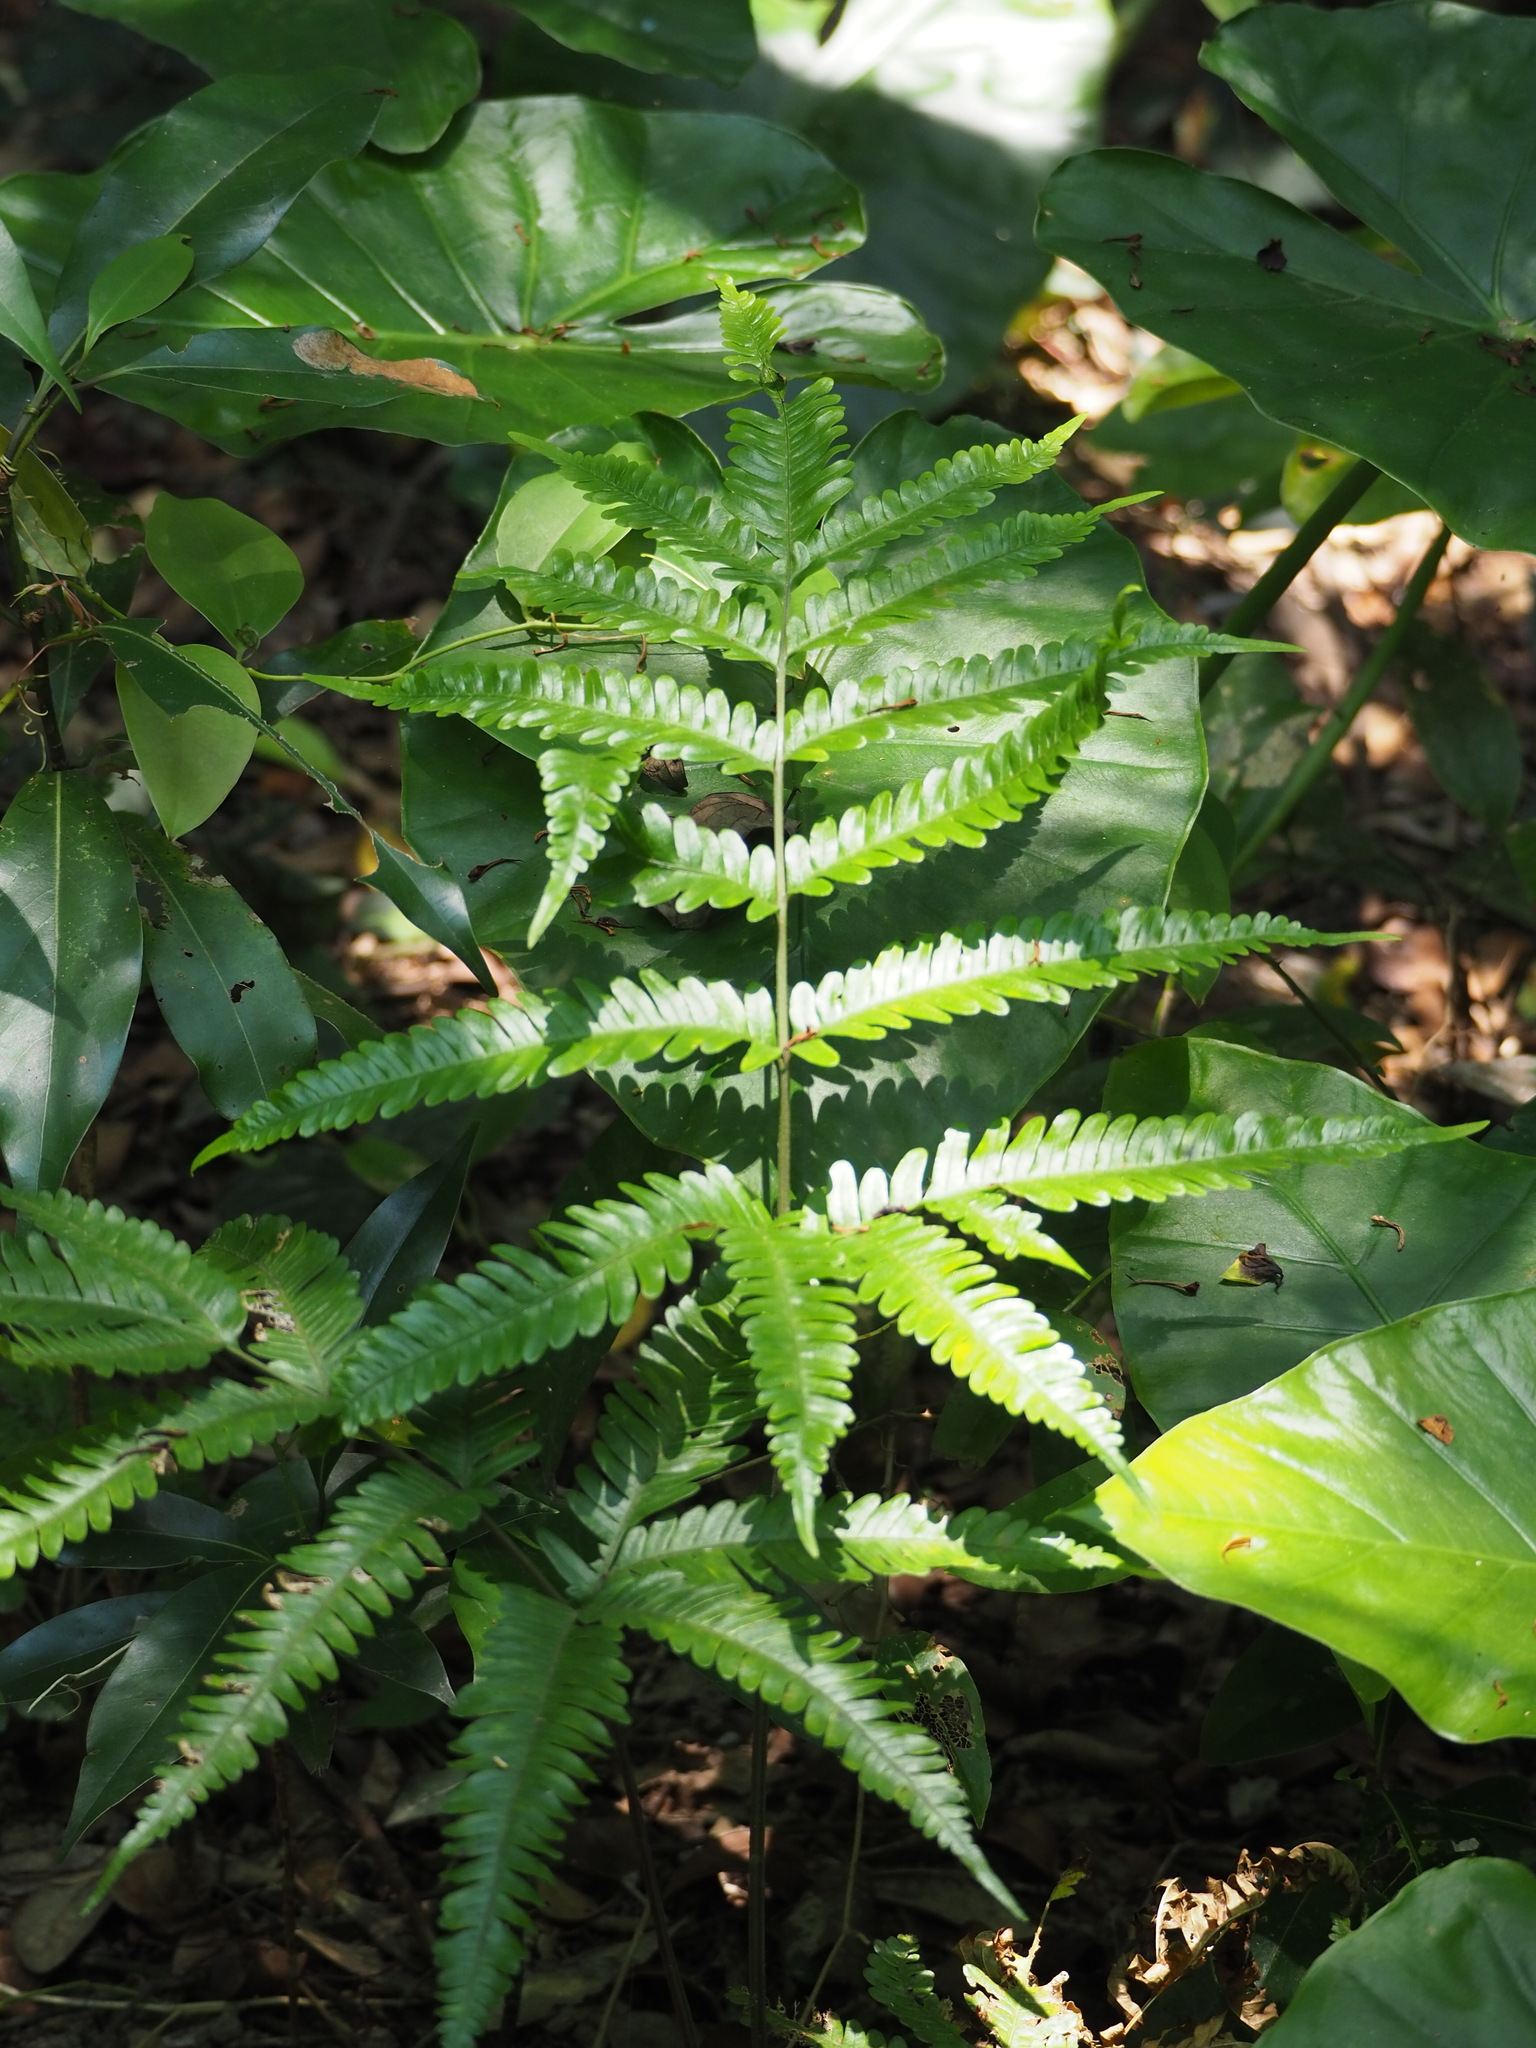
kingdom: Plantae
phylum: Tracheophyta
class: Polypodiopsida
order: Polypodiales
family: Pteridaceae
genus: Pteris
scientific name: Pteris fauriei
